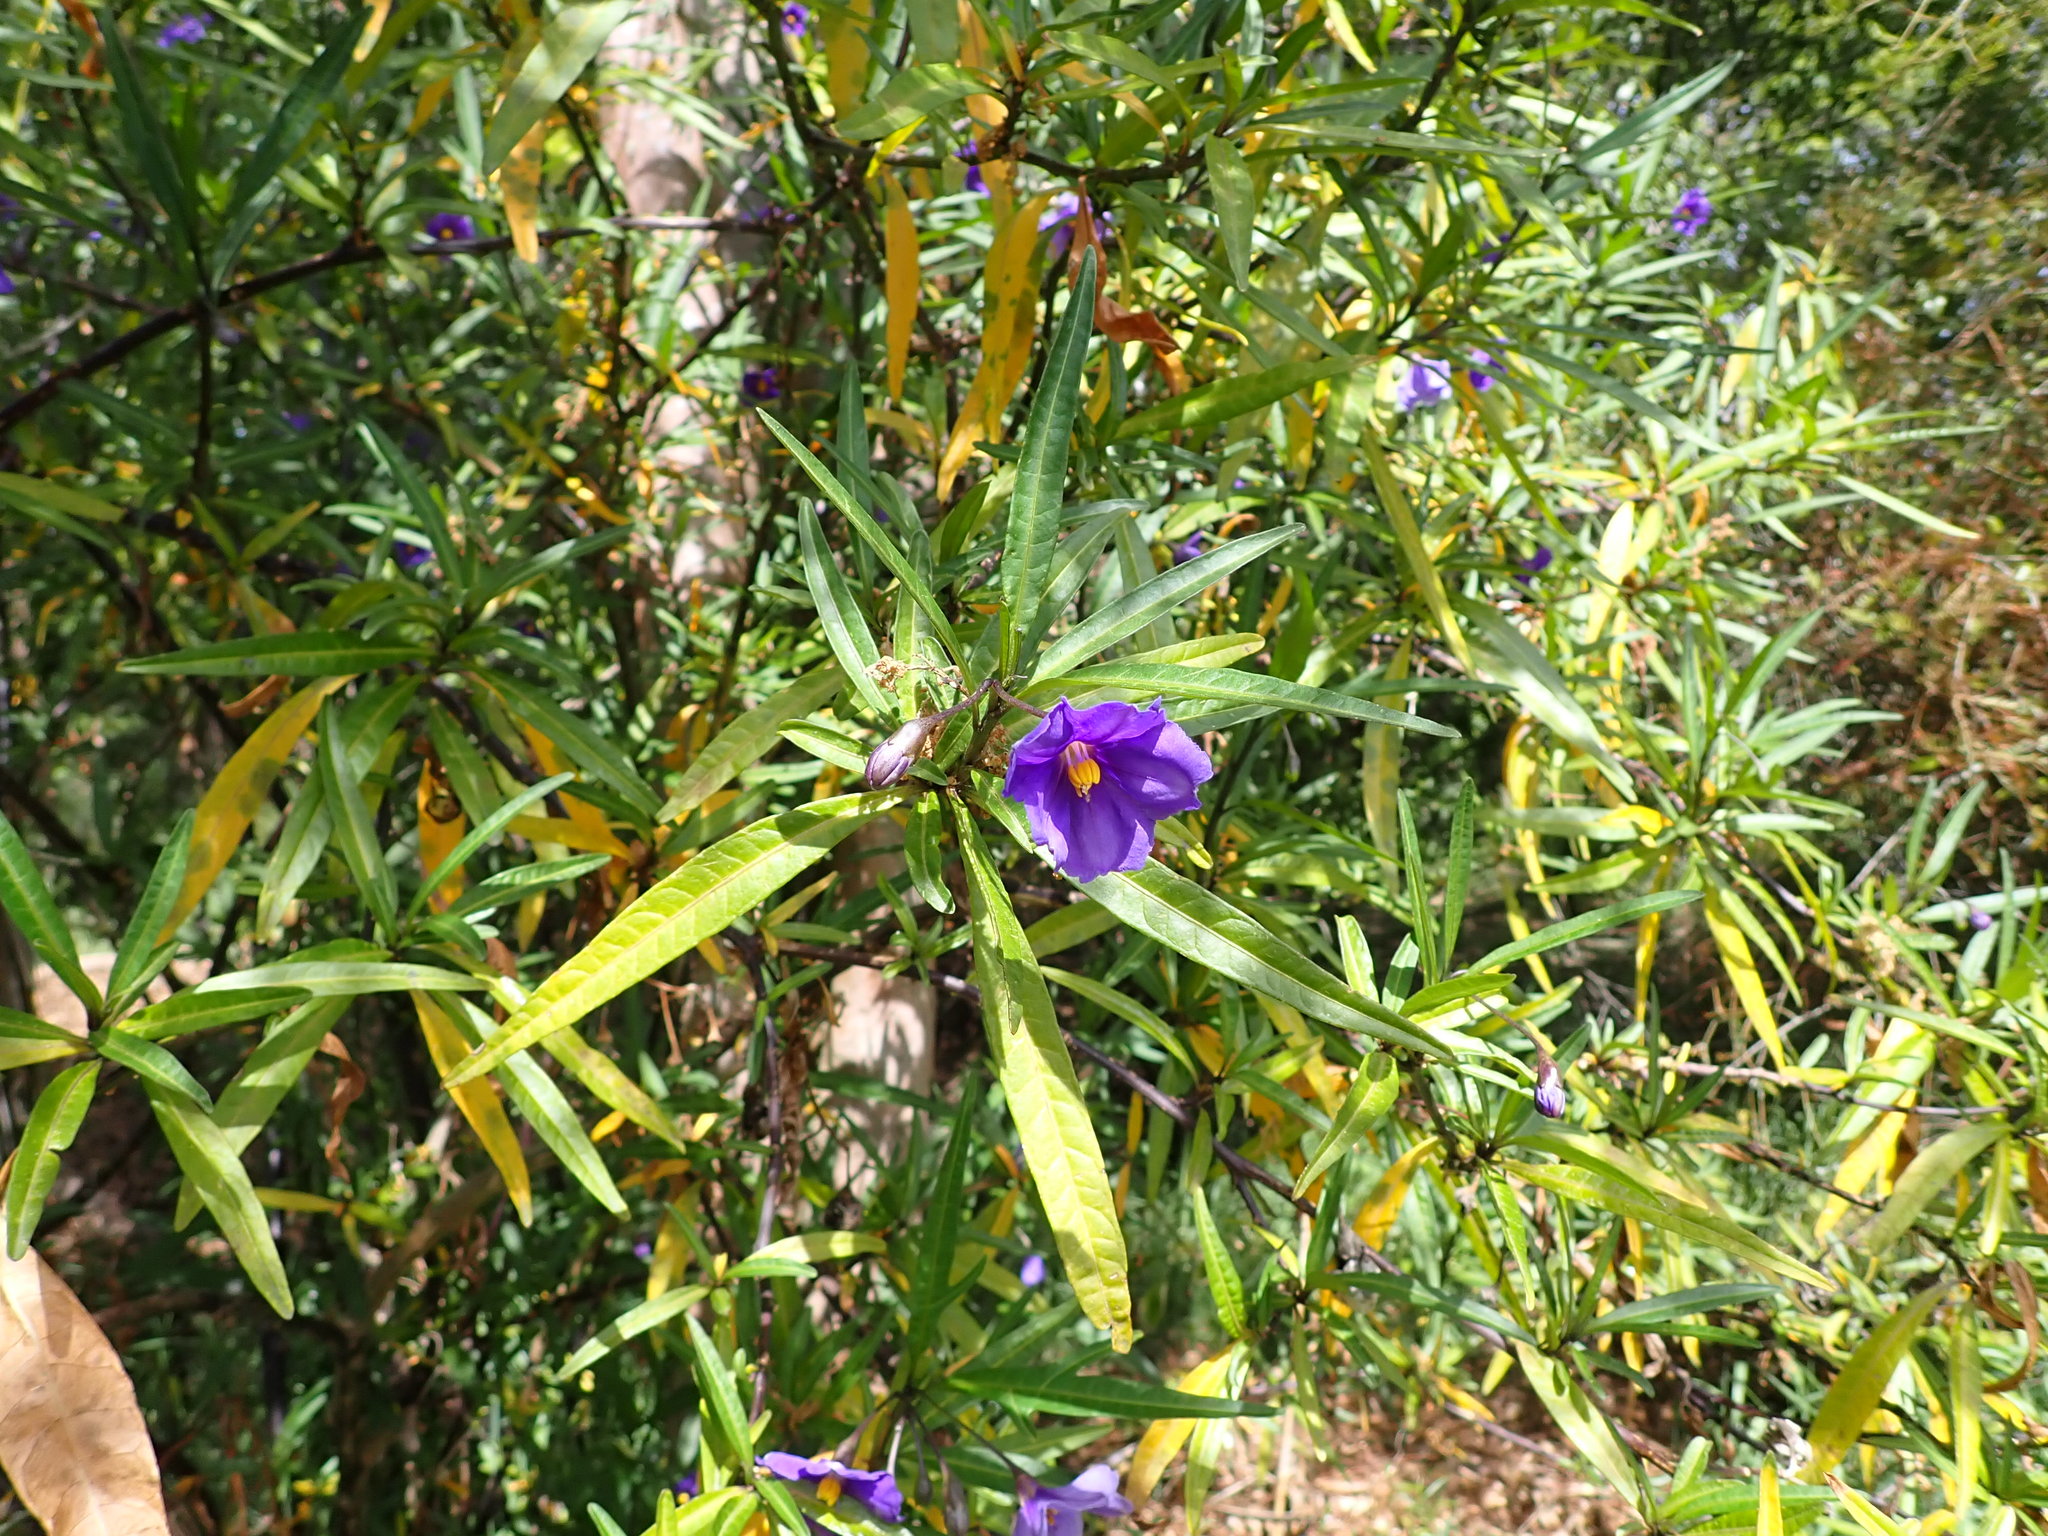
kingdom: Plantae
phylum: Tracheophyta
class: Magnoliopsida
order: Solanales
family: Solanaceae
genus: Solanum
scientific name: Solanum laciniatum
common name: Kangaroo-apple
